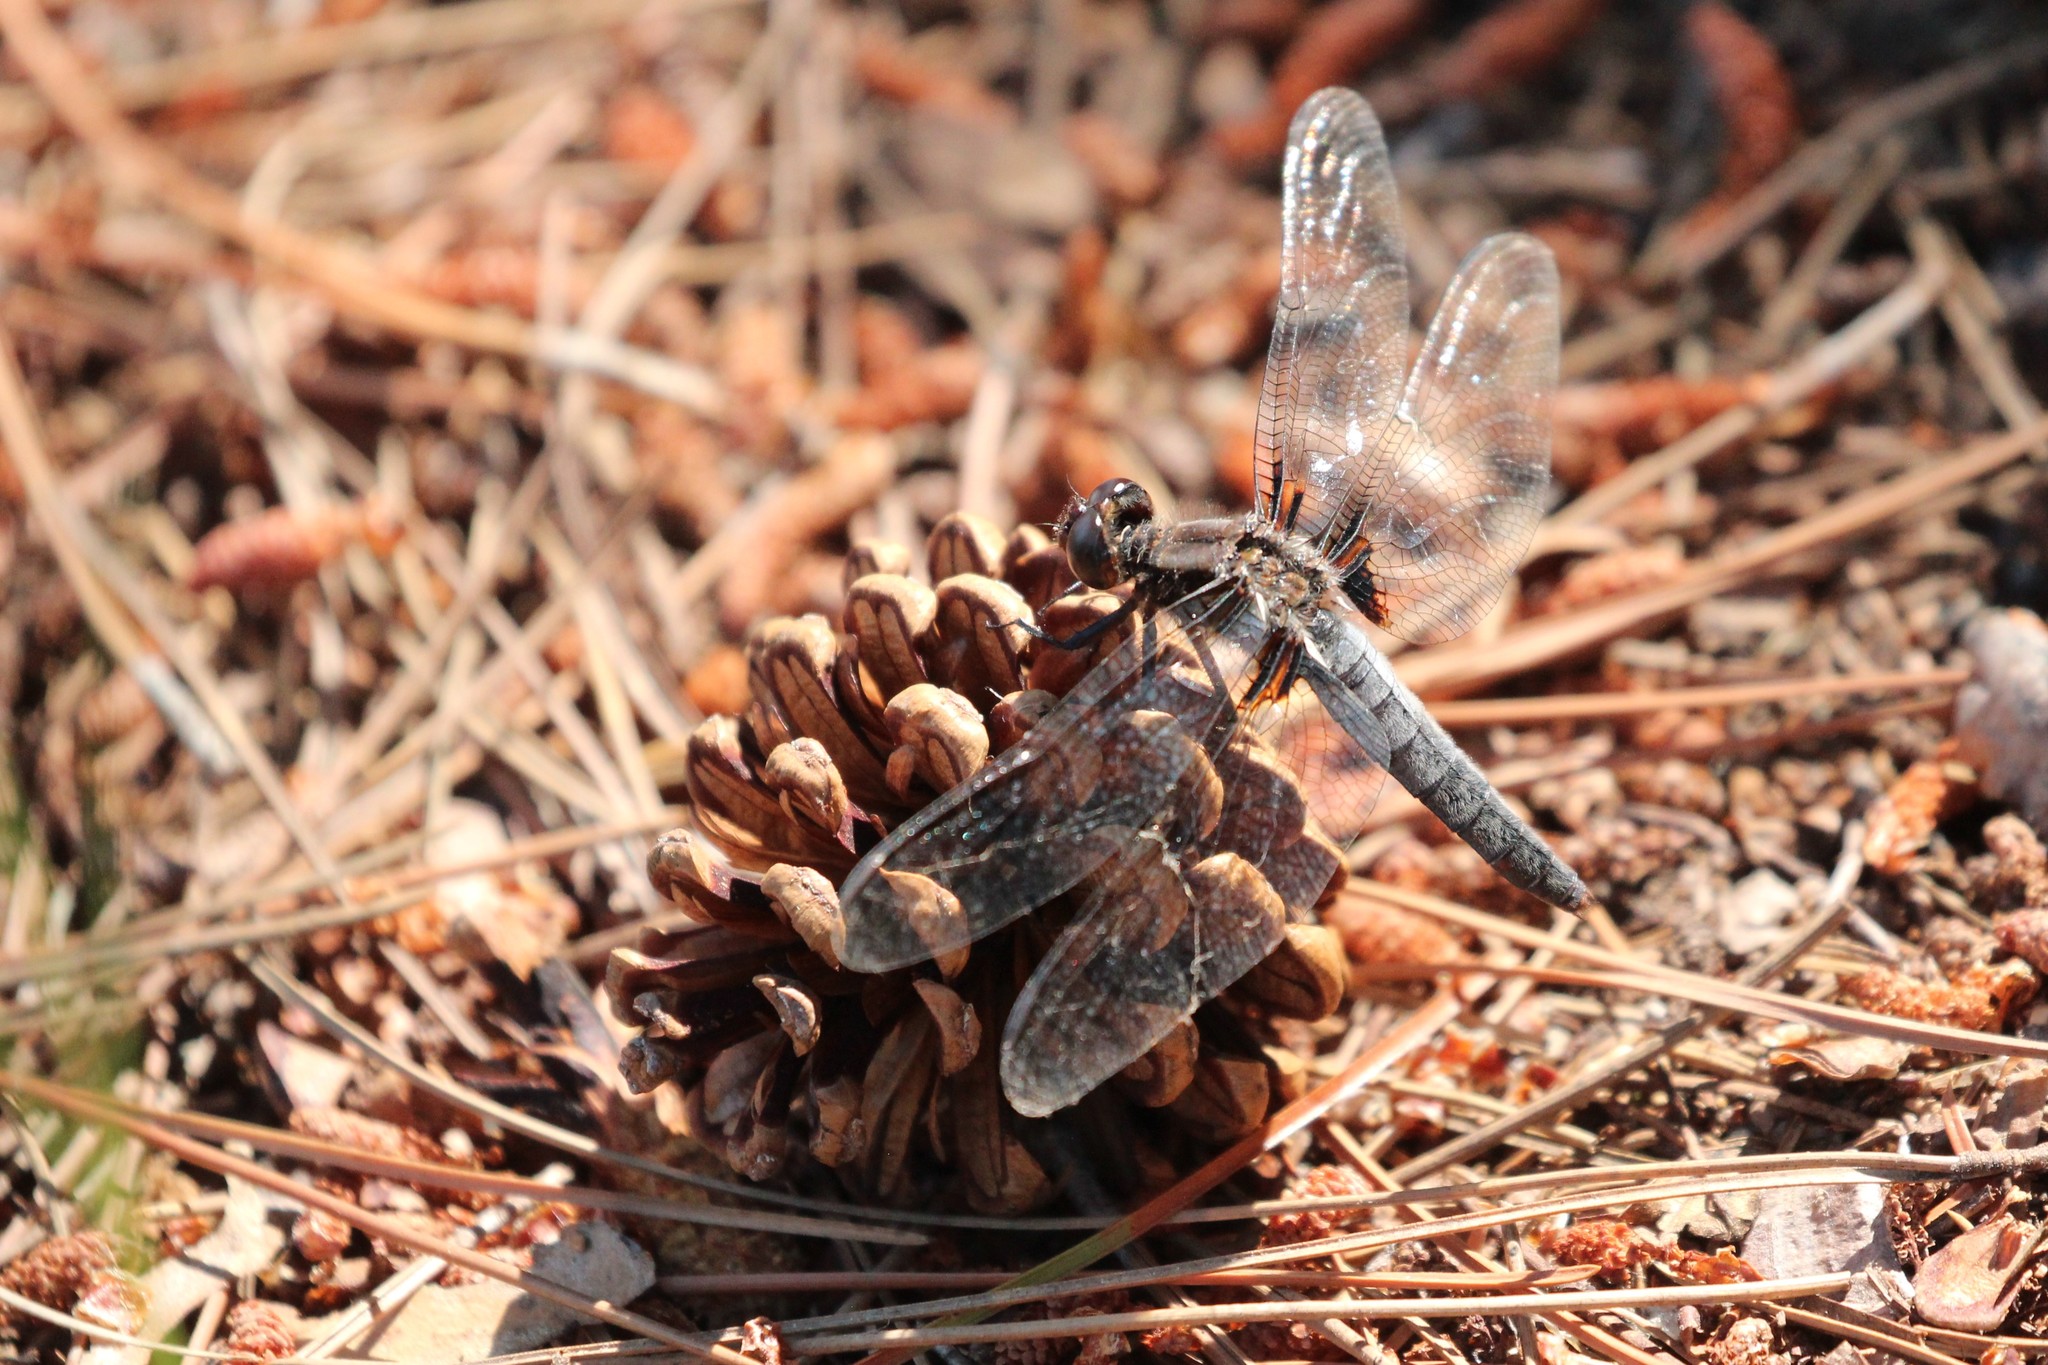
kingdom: Animalia
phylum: Arthropoda
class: Insecta
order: Odonata
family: Libellulidae
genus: Ladona
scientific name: Ladona julia
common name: Chalk-fronted corporal
